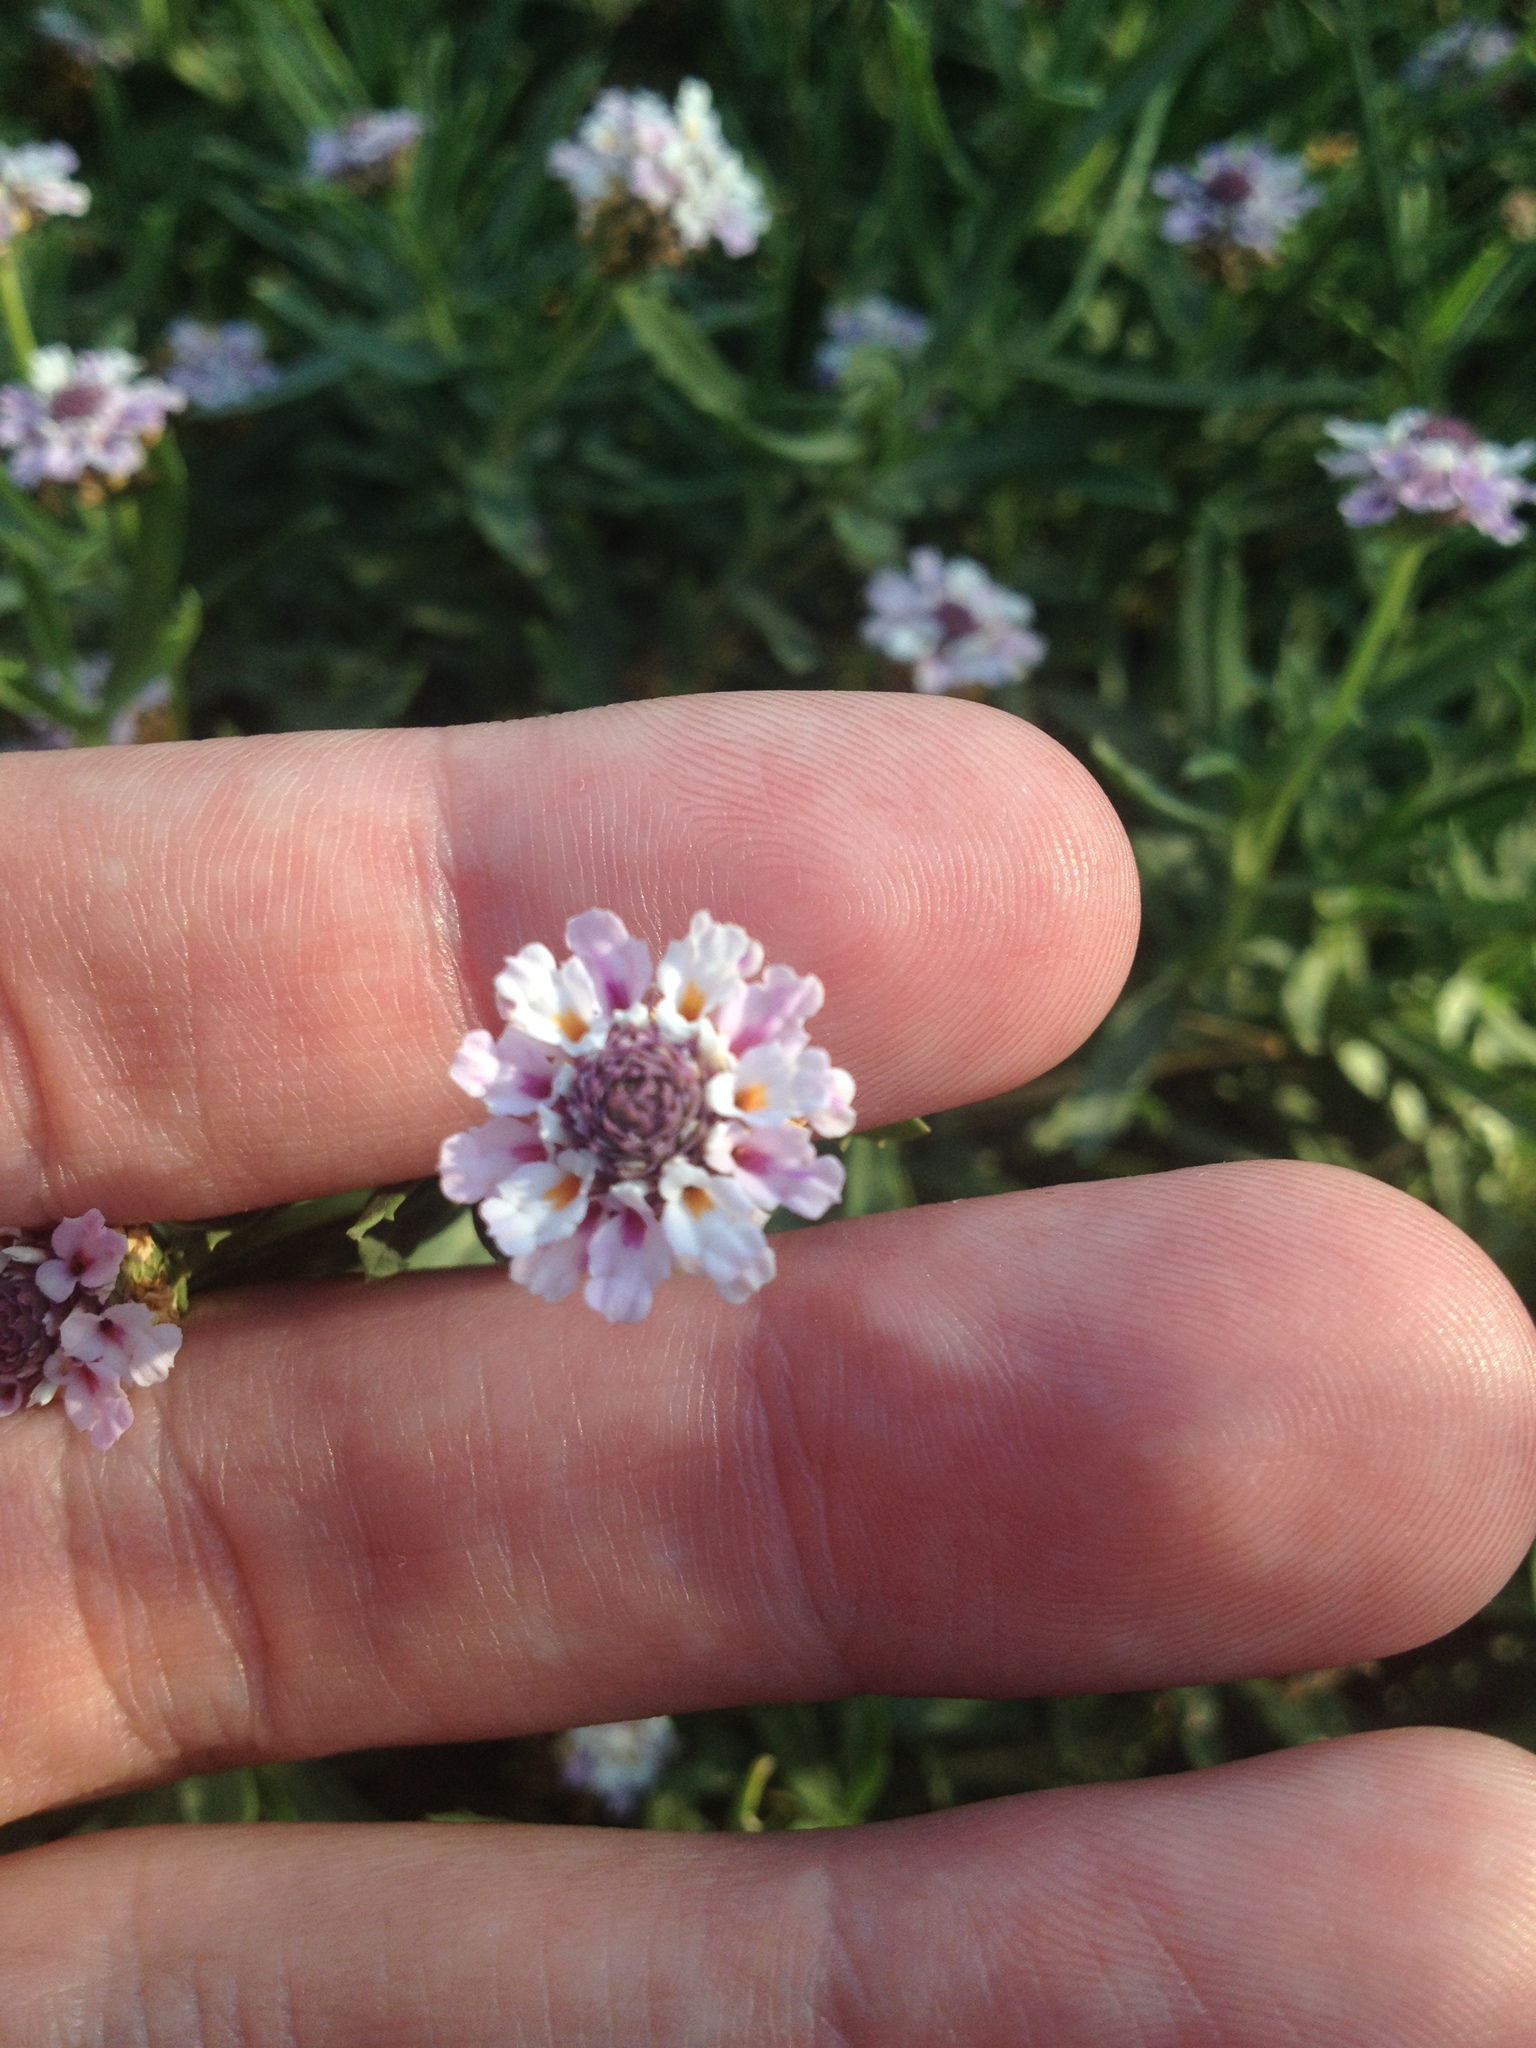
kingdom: Plantae
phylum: Tracheophyta
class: Magnoliopsida
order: Lamiales
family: Verbenaceae
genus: Phyla
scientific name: Phyla cuneifolia
